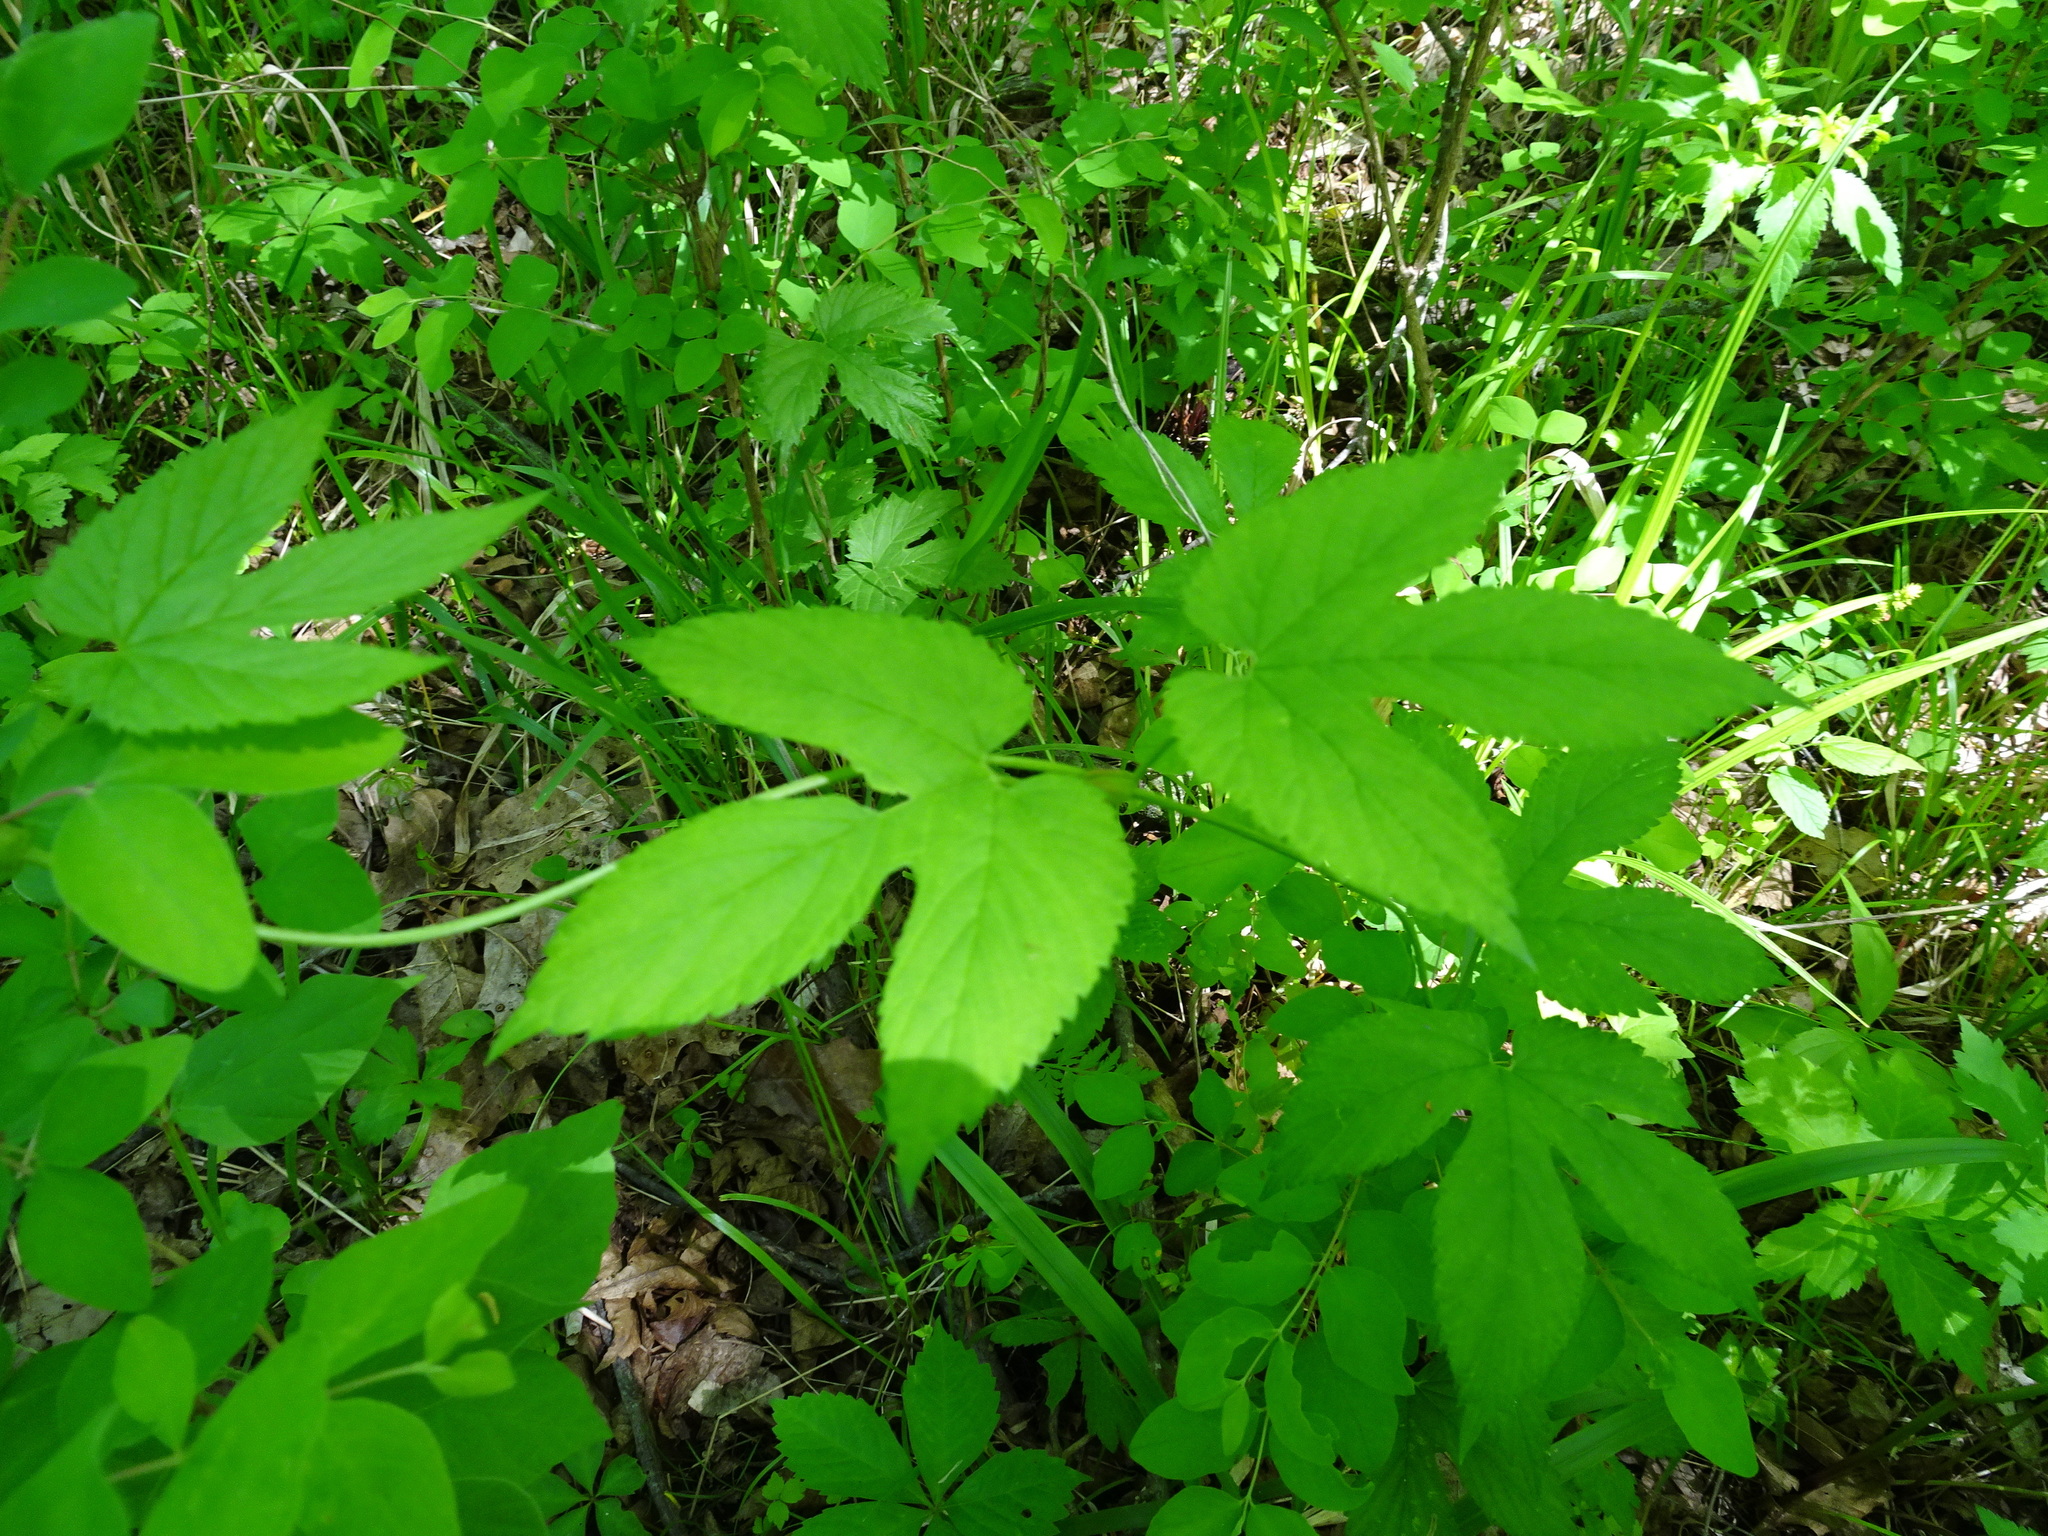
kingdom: Plantae
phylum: Tracheophyta
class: Magnoliopsida
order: Rosales
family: Cannabaceae
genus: Humulus
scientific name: Humulus lupulus
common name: Hop
